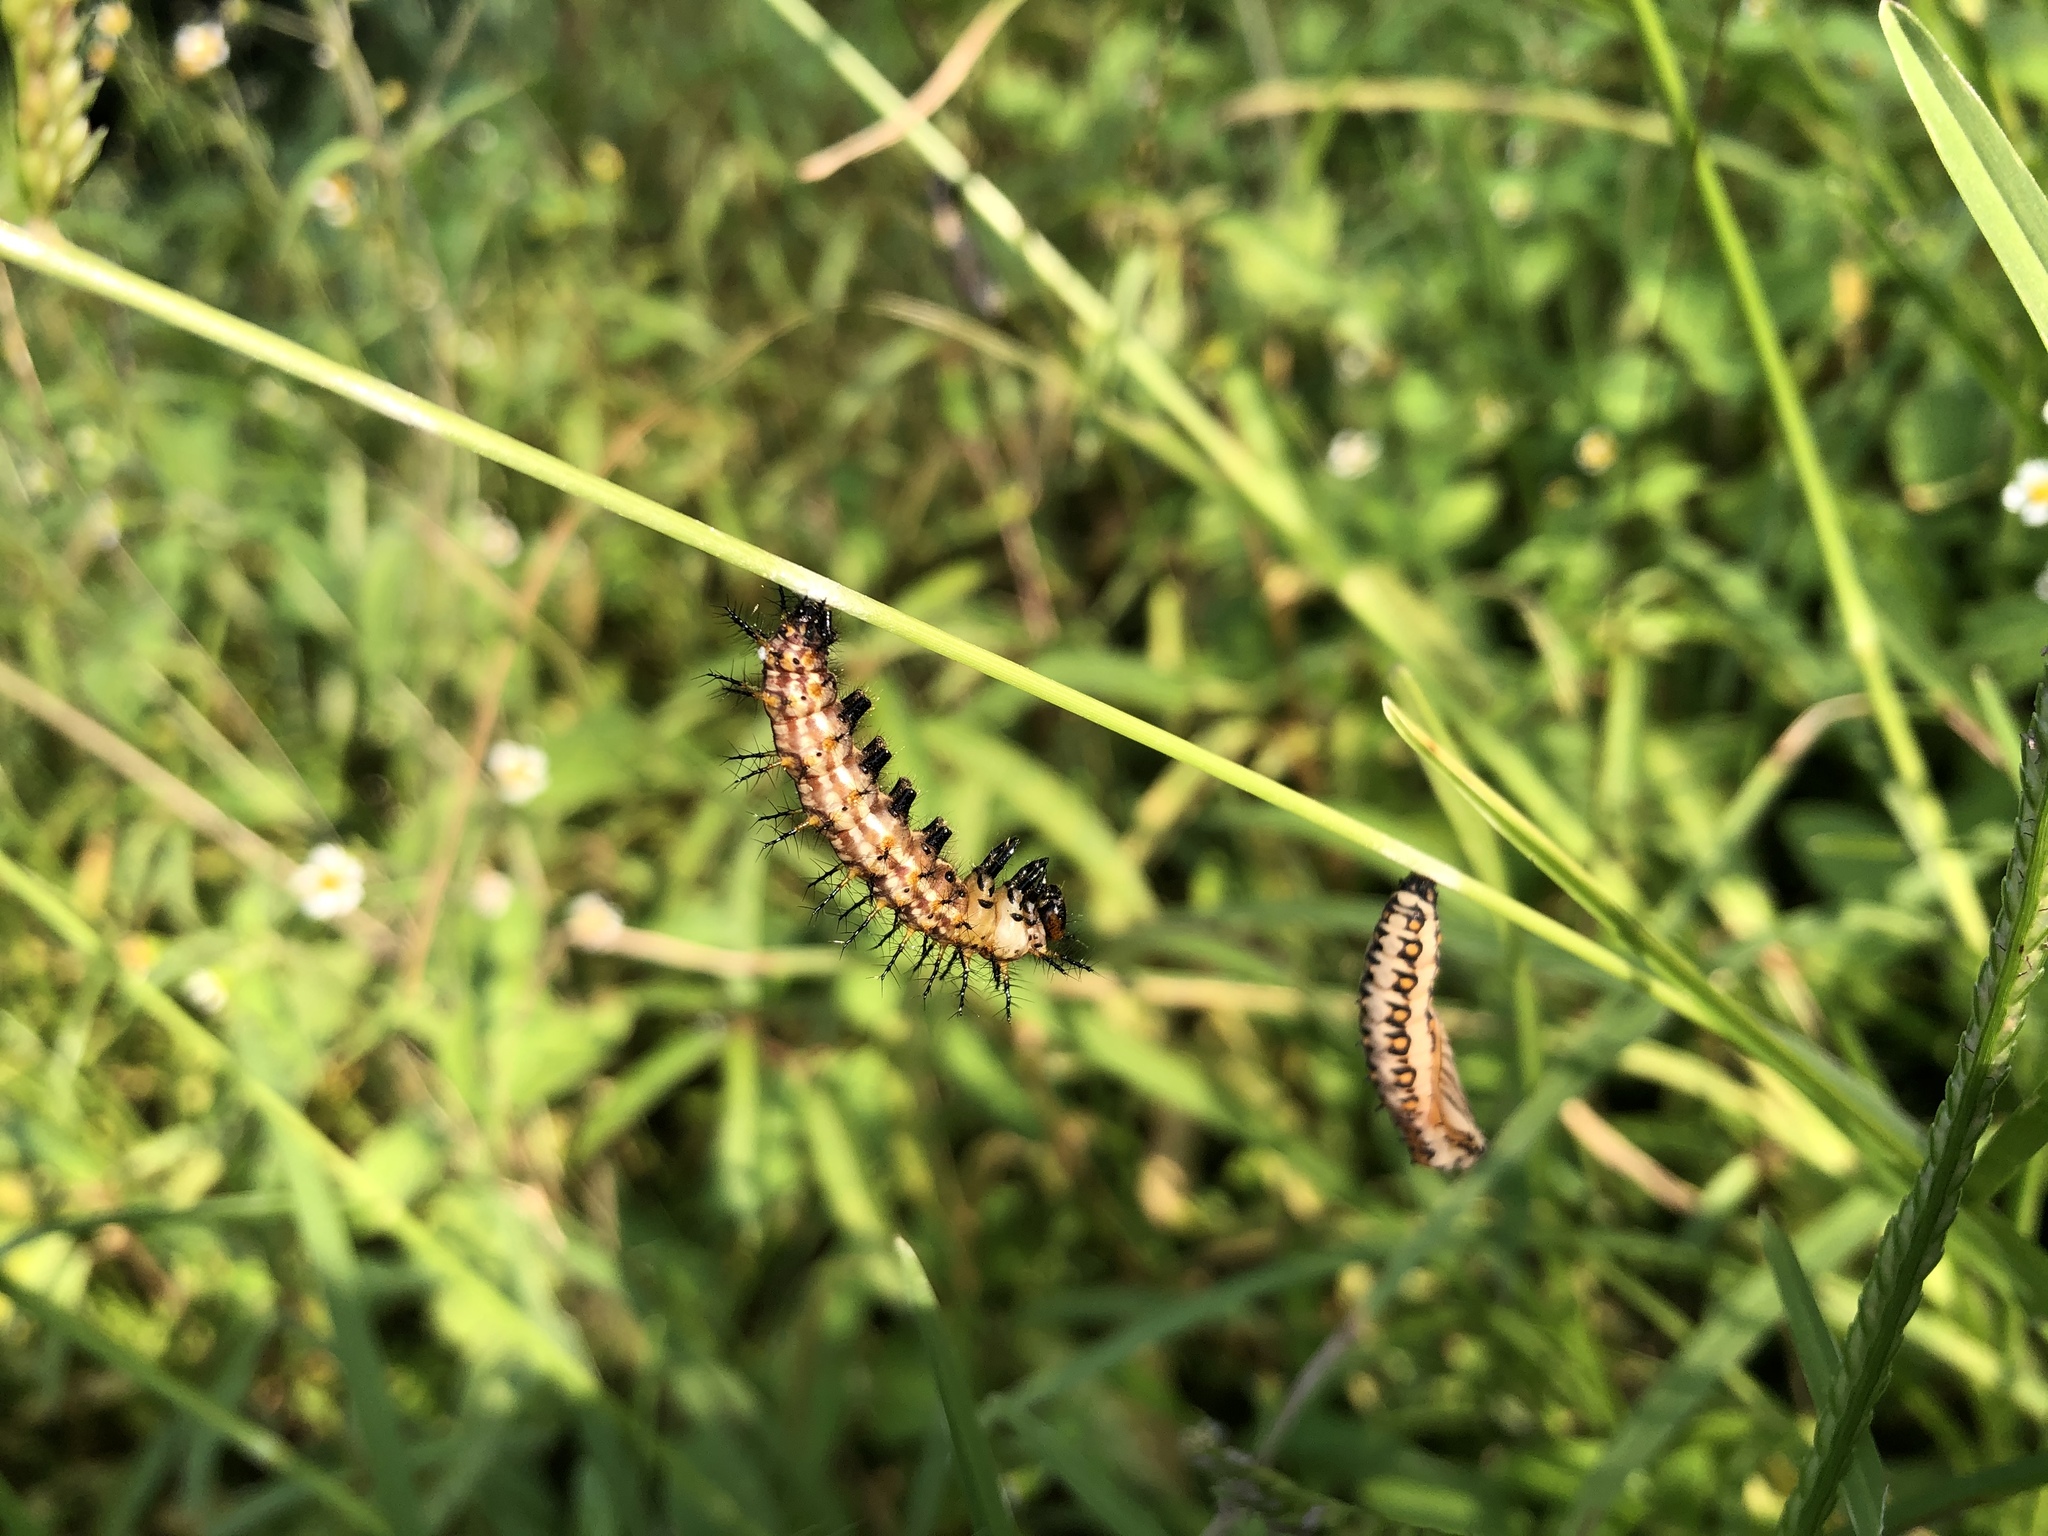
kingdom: Animalia
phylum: Arthropoda
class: Insecta
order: Lepidoptera
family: Nymphalidae
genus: Acraea
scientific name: Acraea Telchinia issoria
